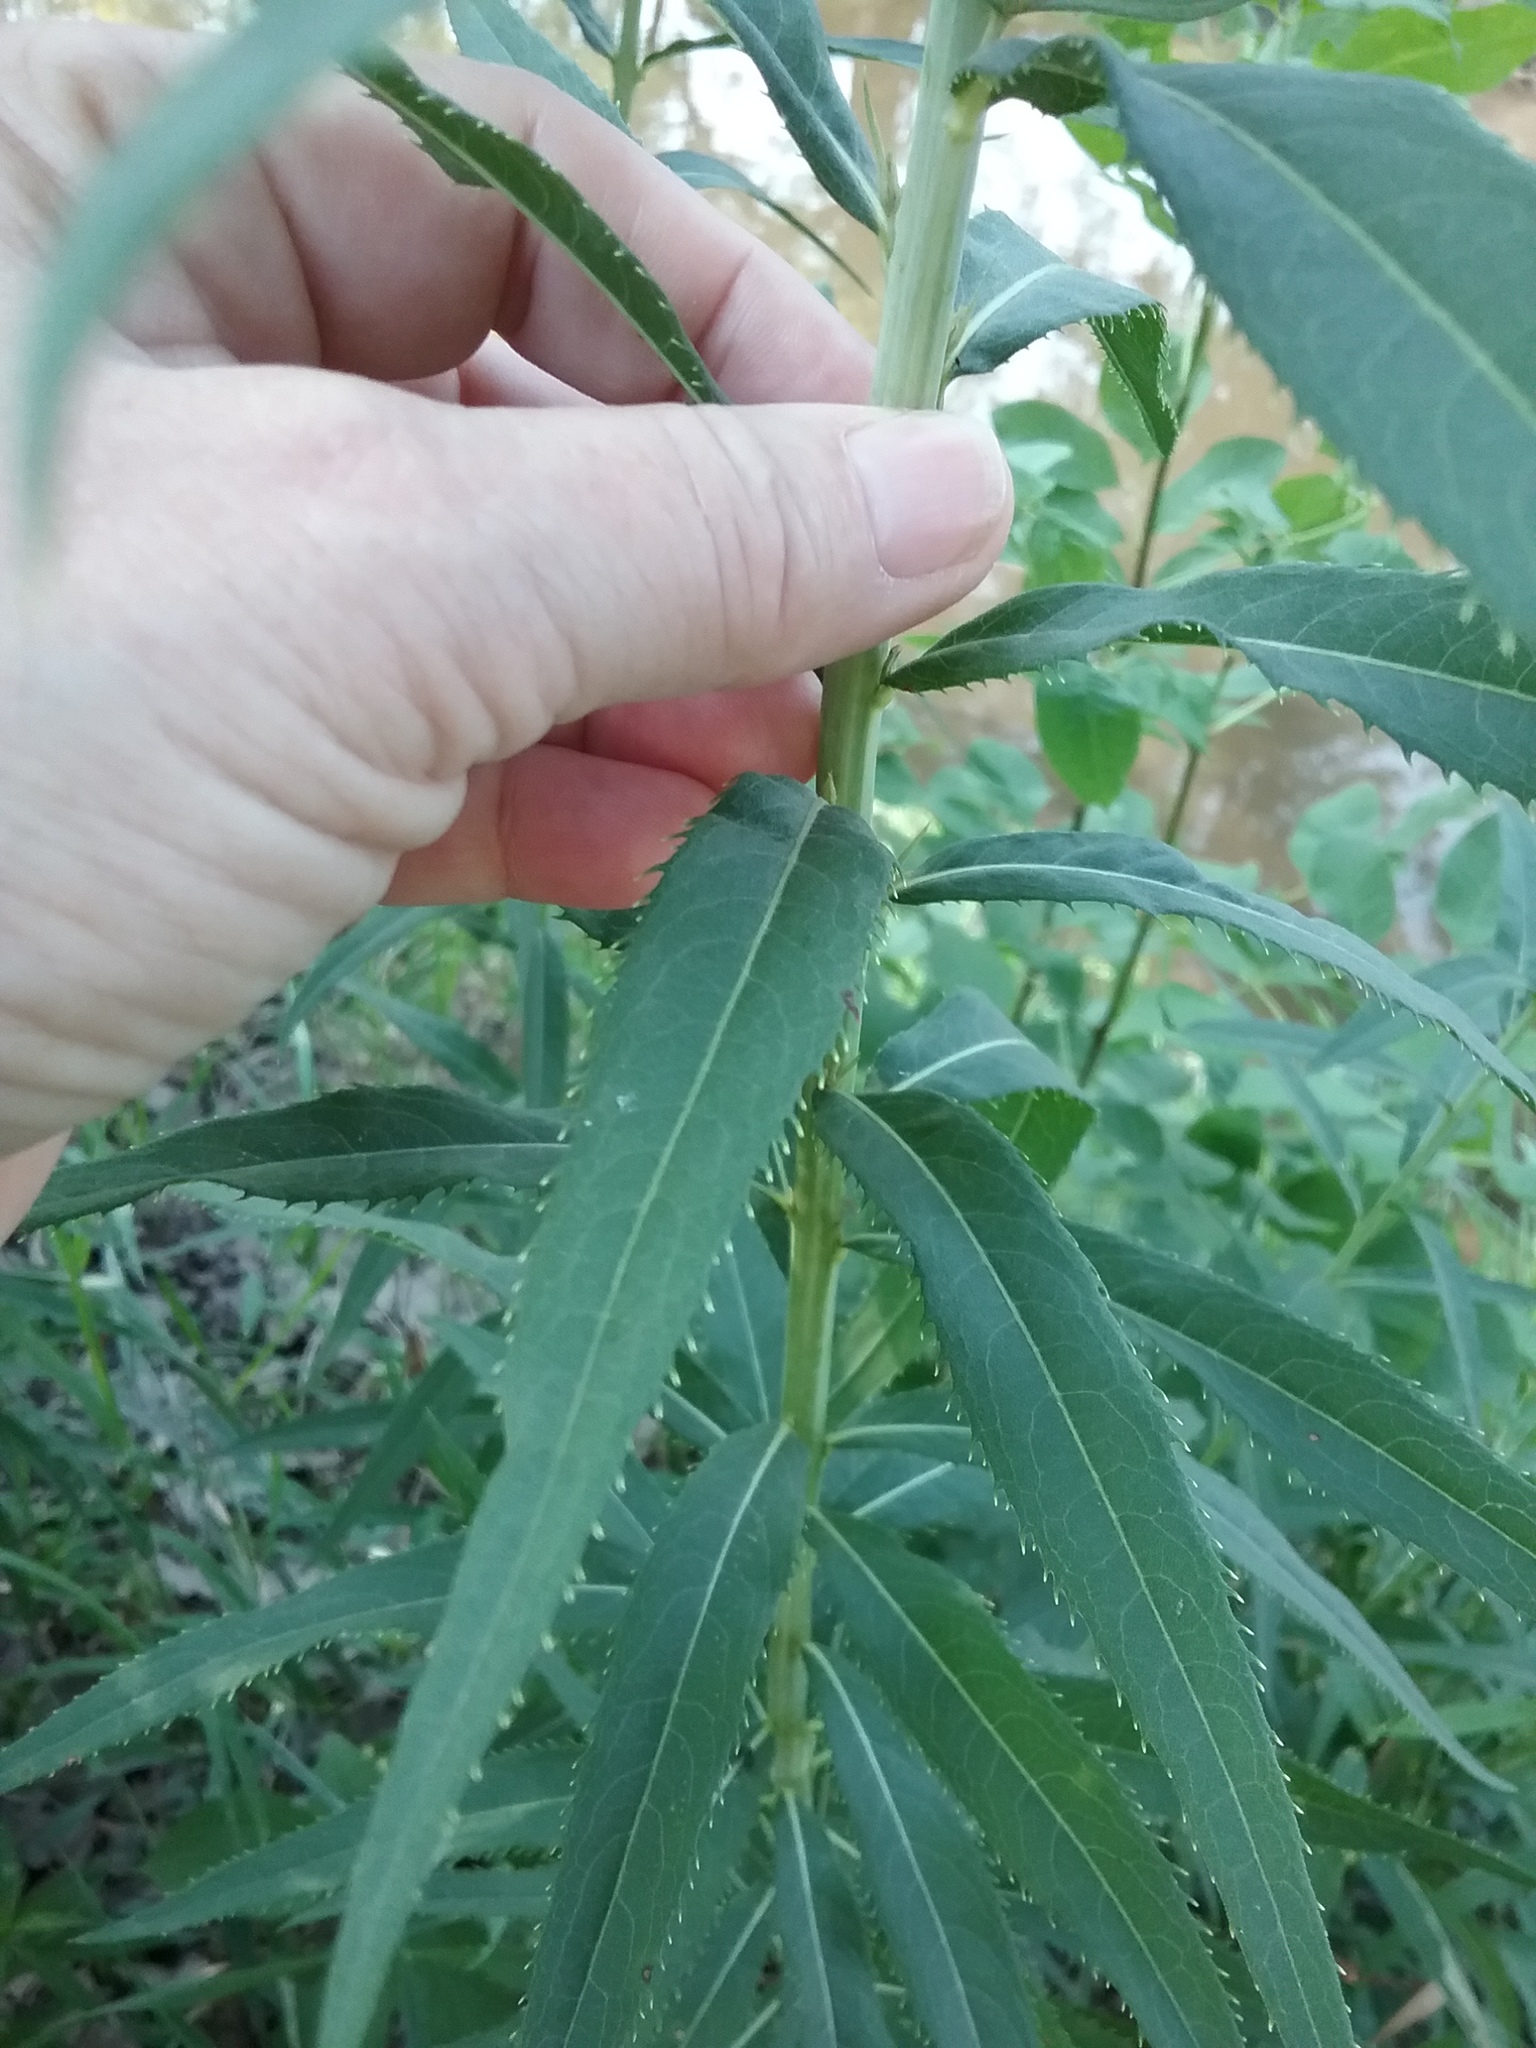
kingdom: Plantae
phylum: Tracheophyta
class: Magnoliopsida
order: Asterales
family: Asteraceae
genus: Vernonia
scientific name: Vernonia fasciculata
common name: Fascicled ironweed
